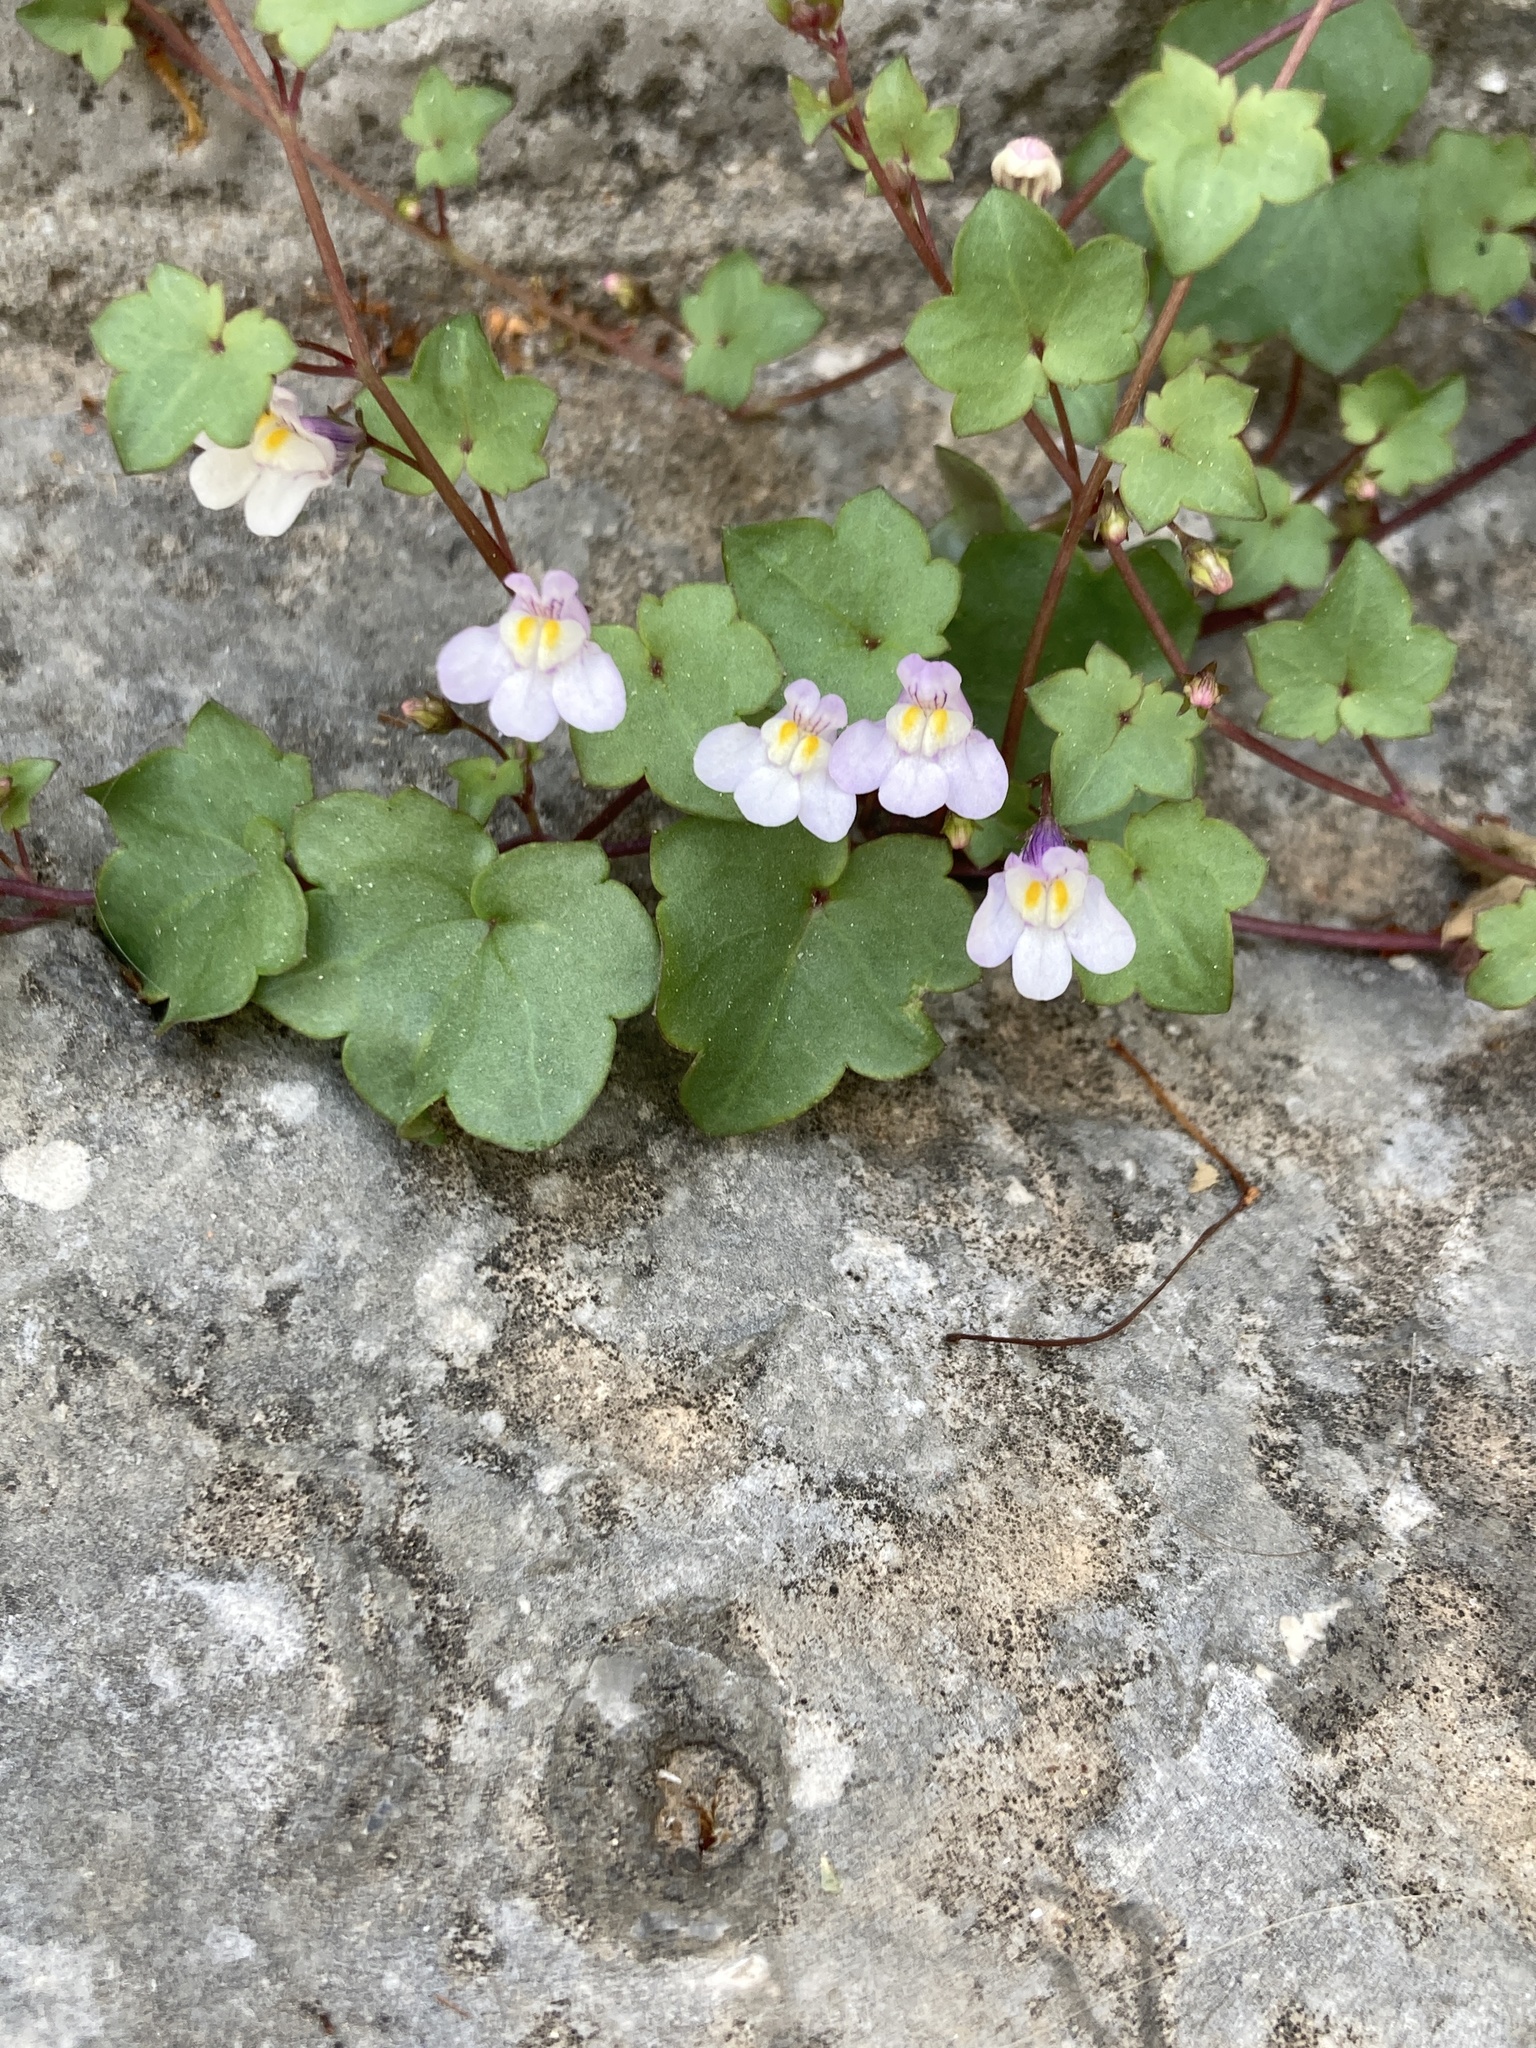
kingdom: Plantae
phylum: Tracheophyta
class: Magnoliopsida
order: Lamiales
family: Plantaginaceae
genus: Cymbalaria
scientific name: Cymbalaria muralis
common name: Ivy-leaved toadflax
